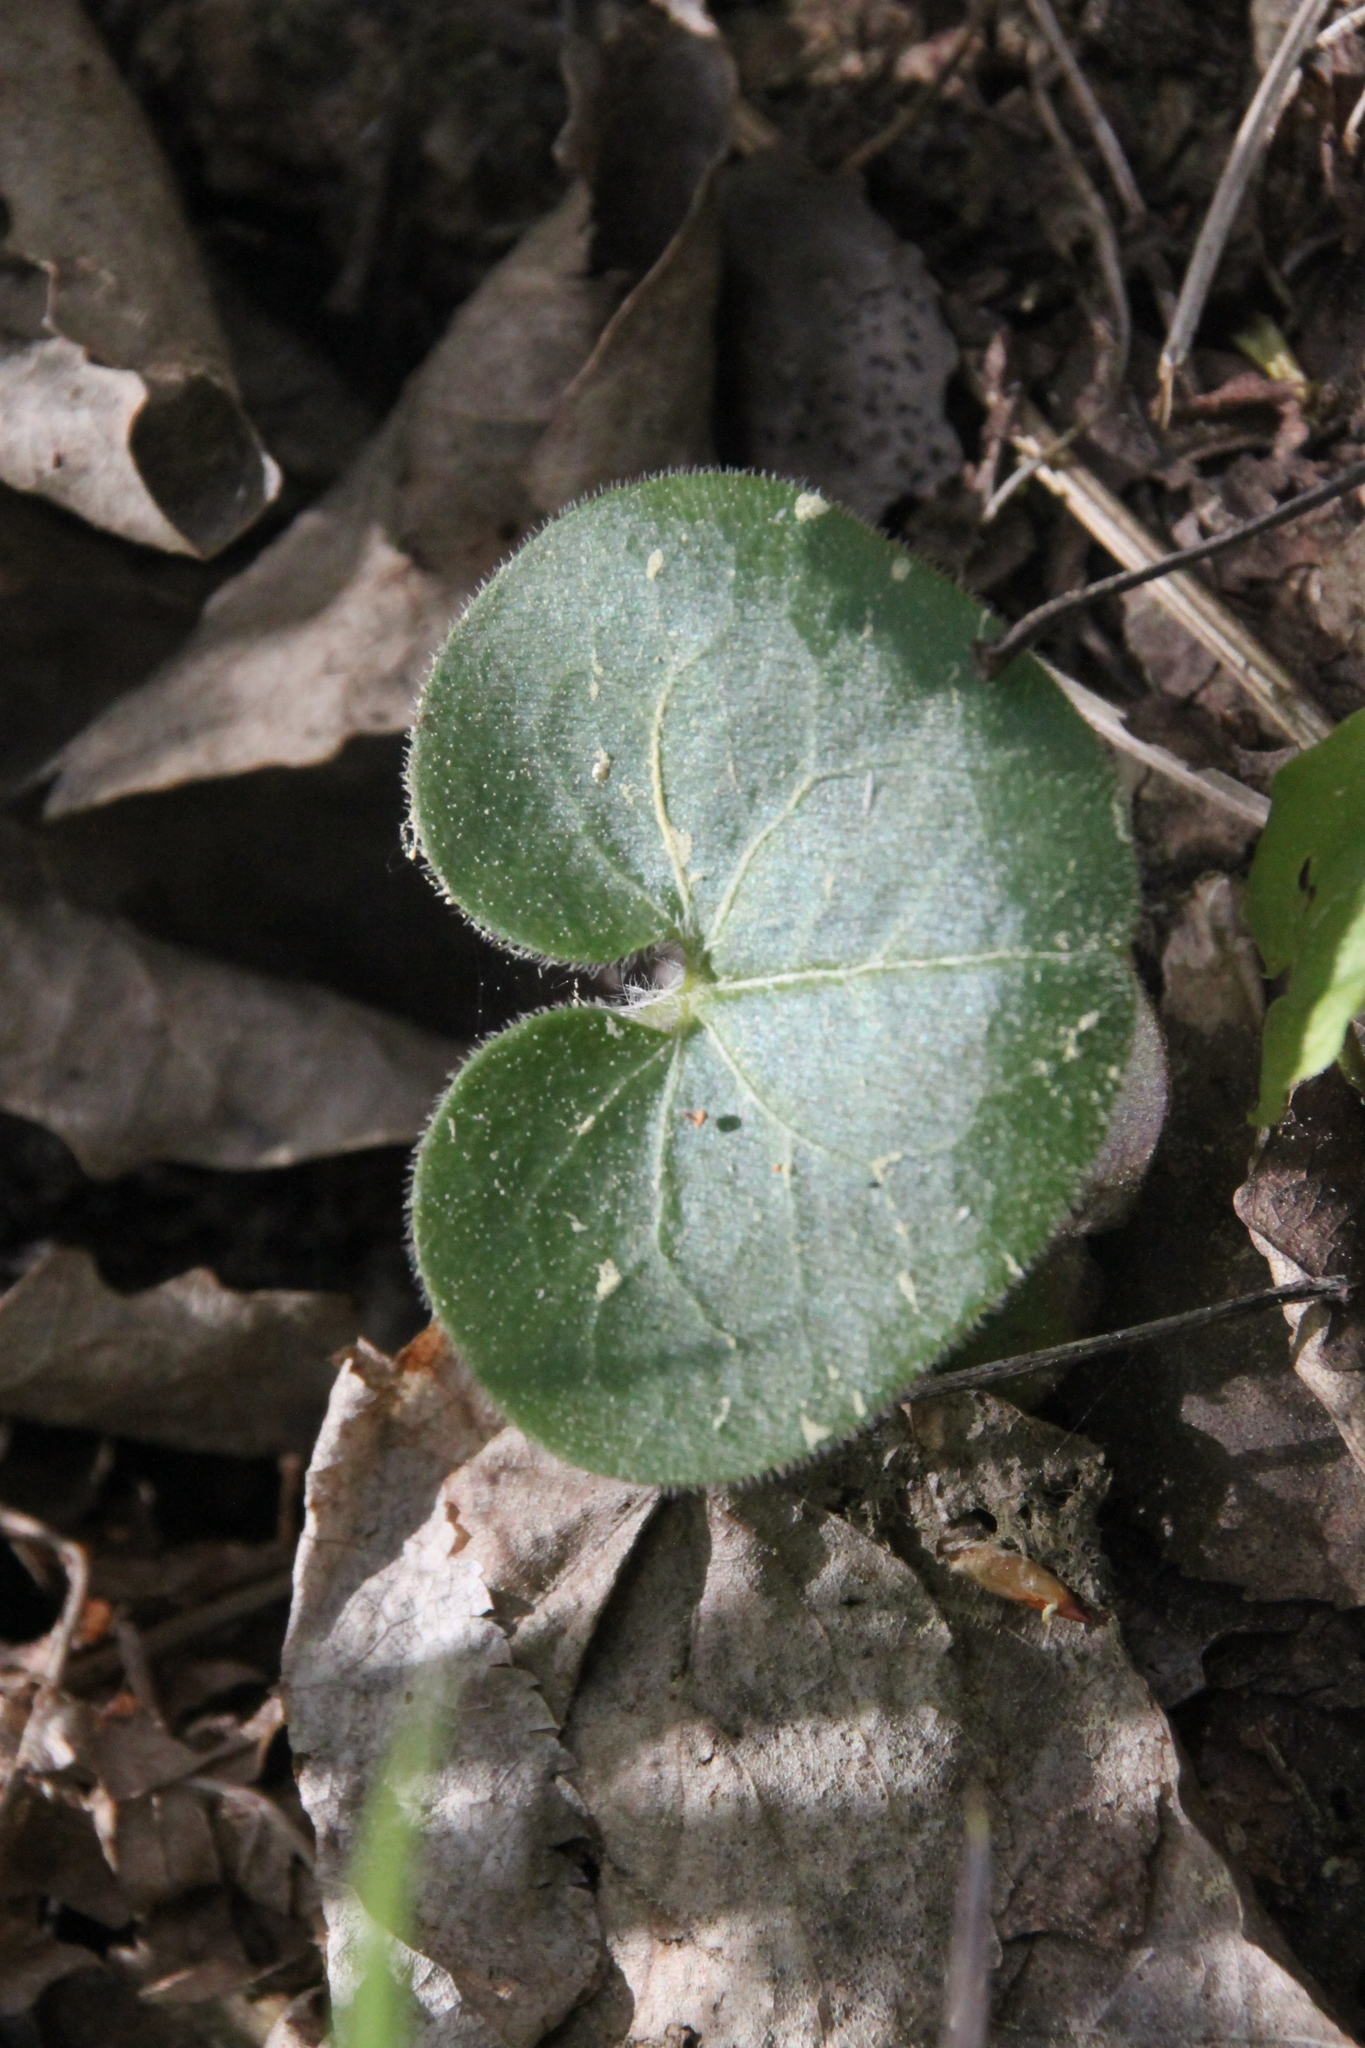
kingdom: Plantae
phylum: Tracheophyta
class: Magnoliopsida
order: Piperales
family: Aristolochiaceae
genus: Asarum
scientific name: Asarum europaeum
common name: Asarabacca
